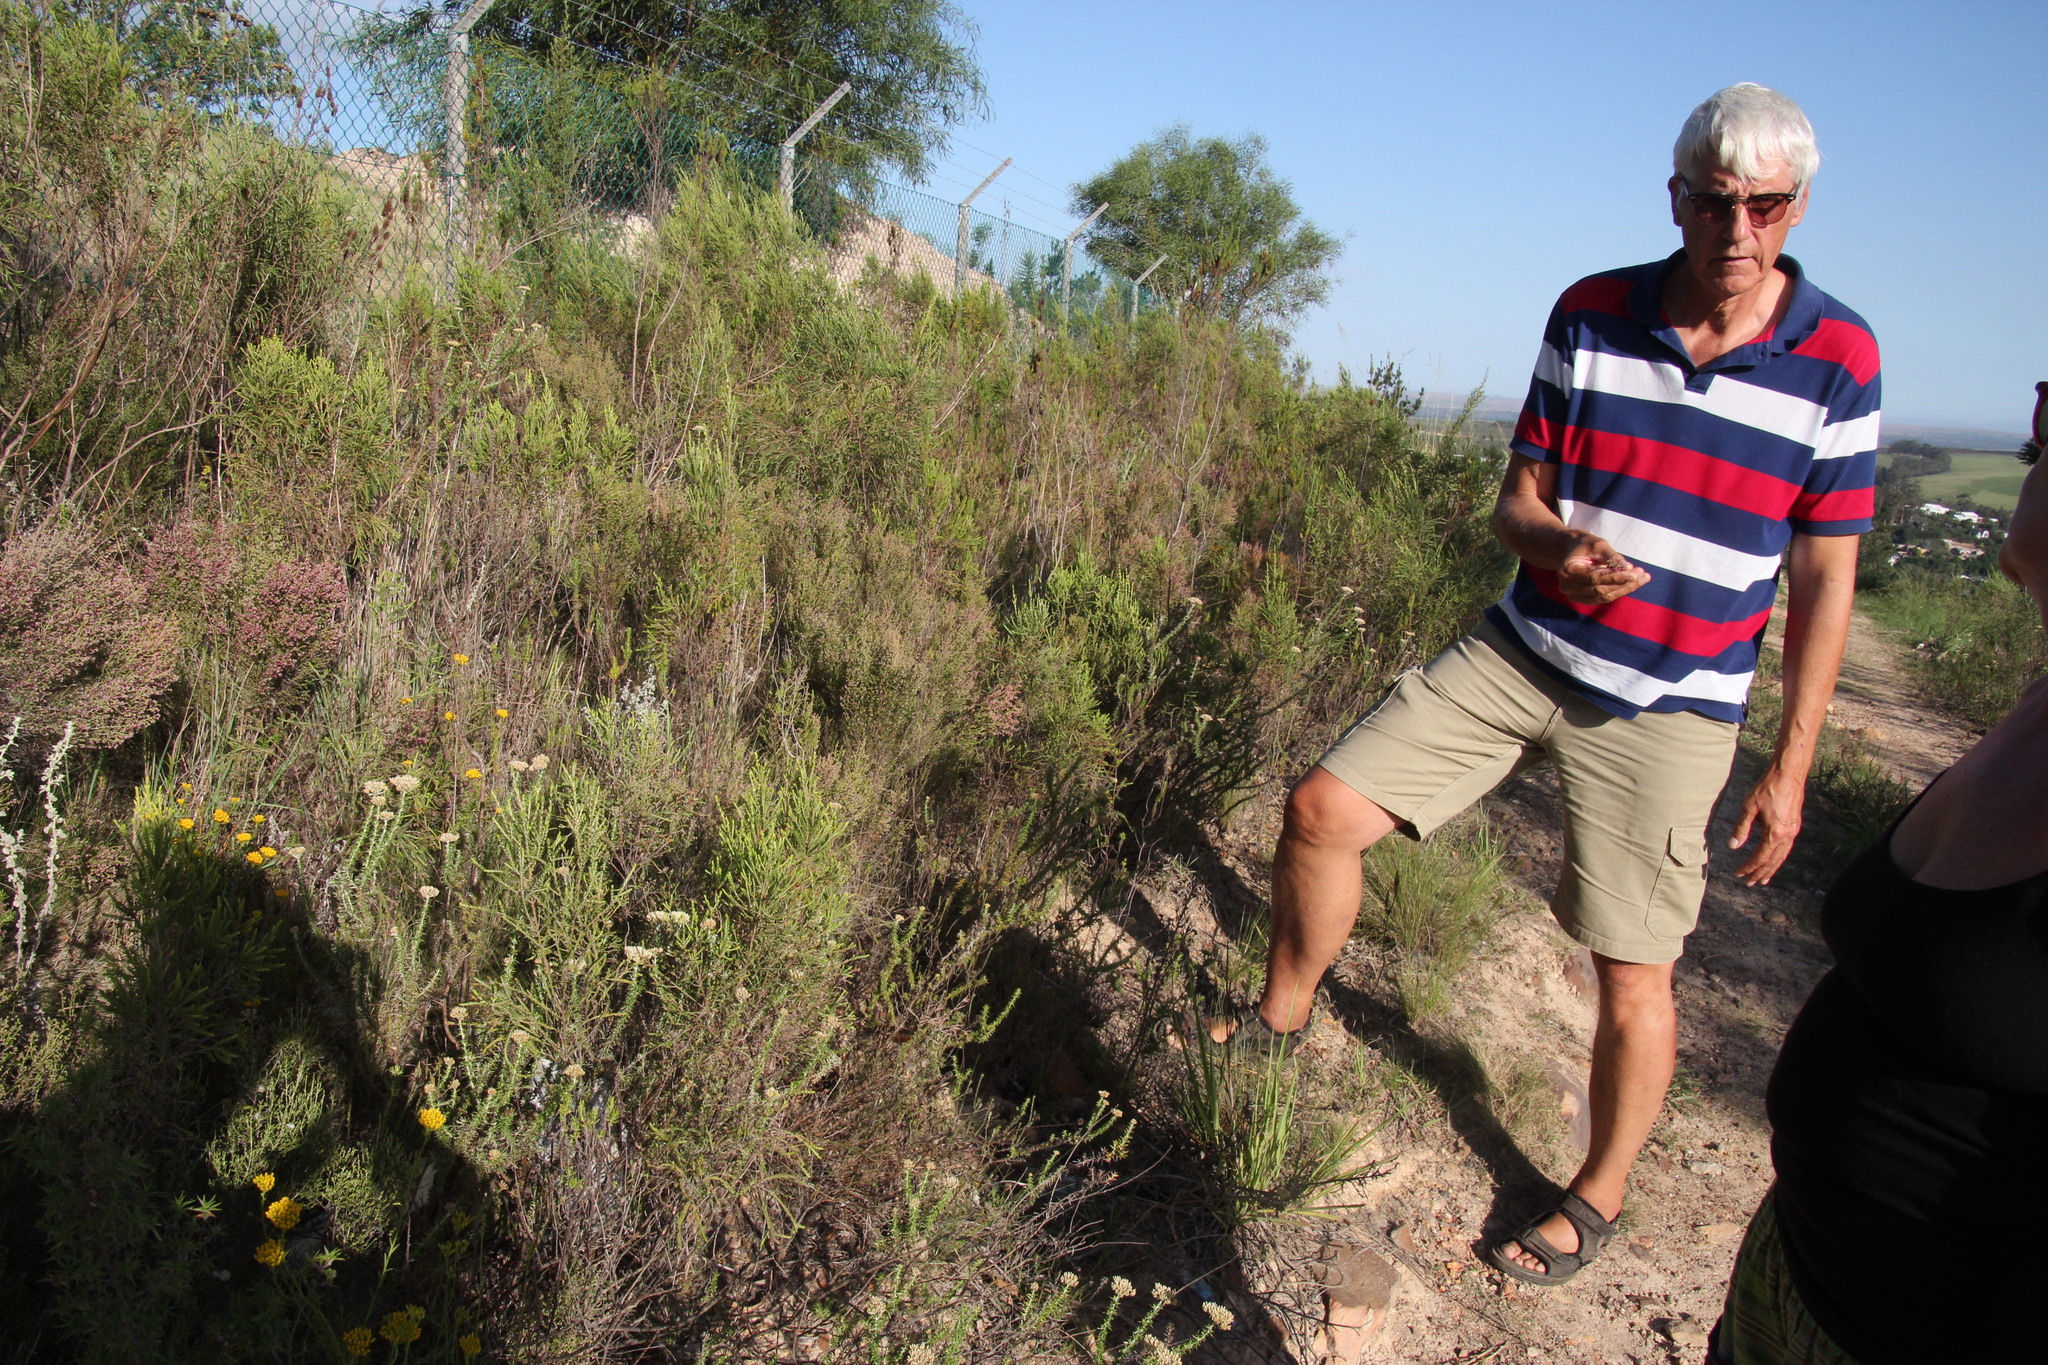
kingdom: Plantae
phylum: Tracheophyta
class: Magnoliopsida
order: Ericales
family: Ericaceae
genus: Erica
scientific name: Erica peltata
